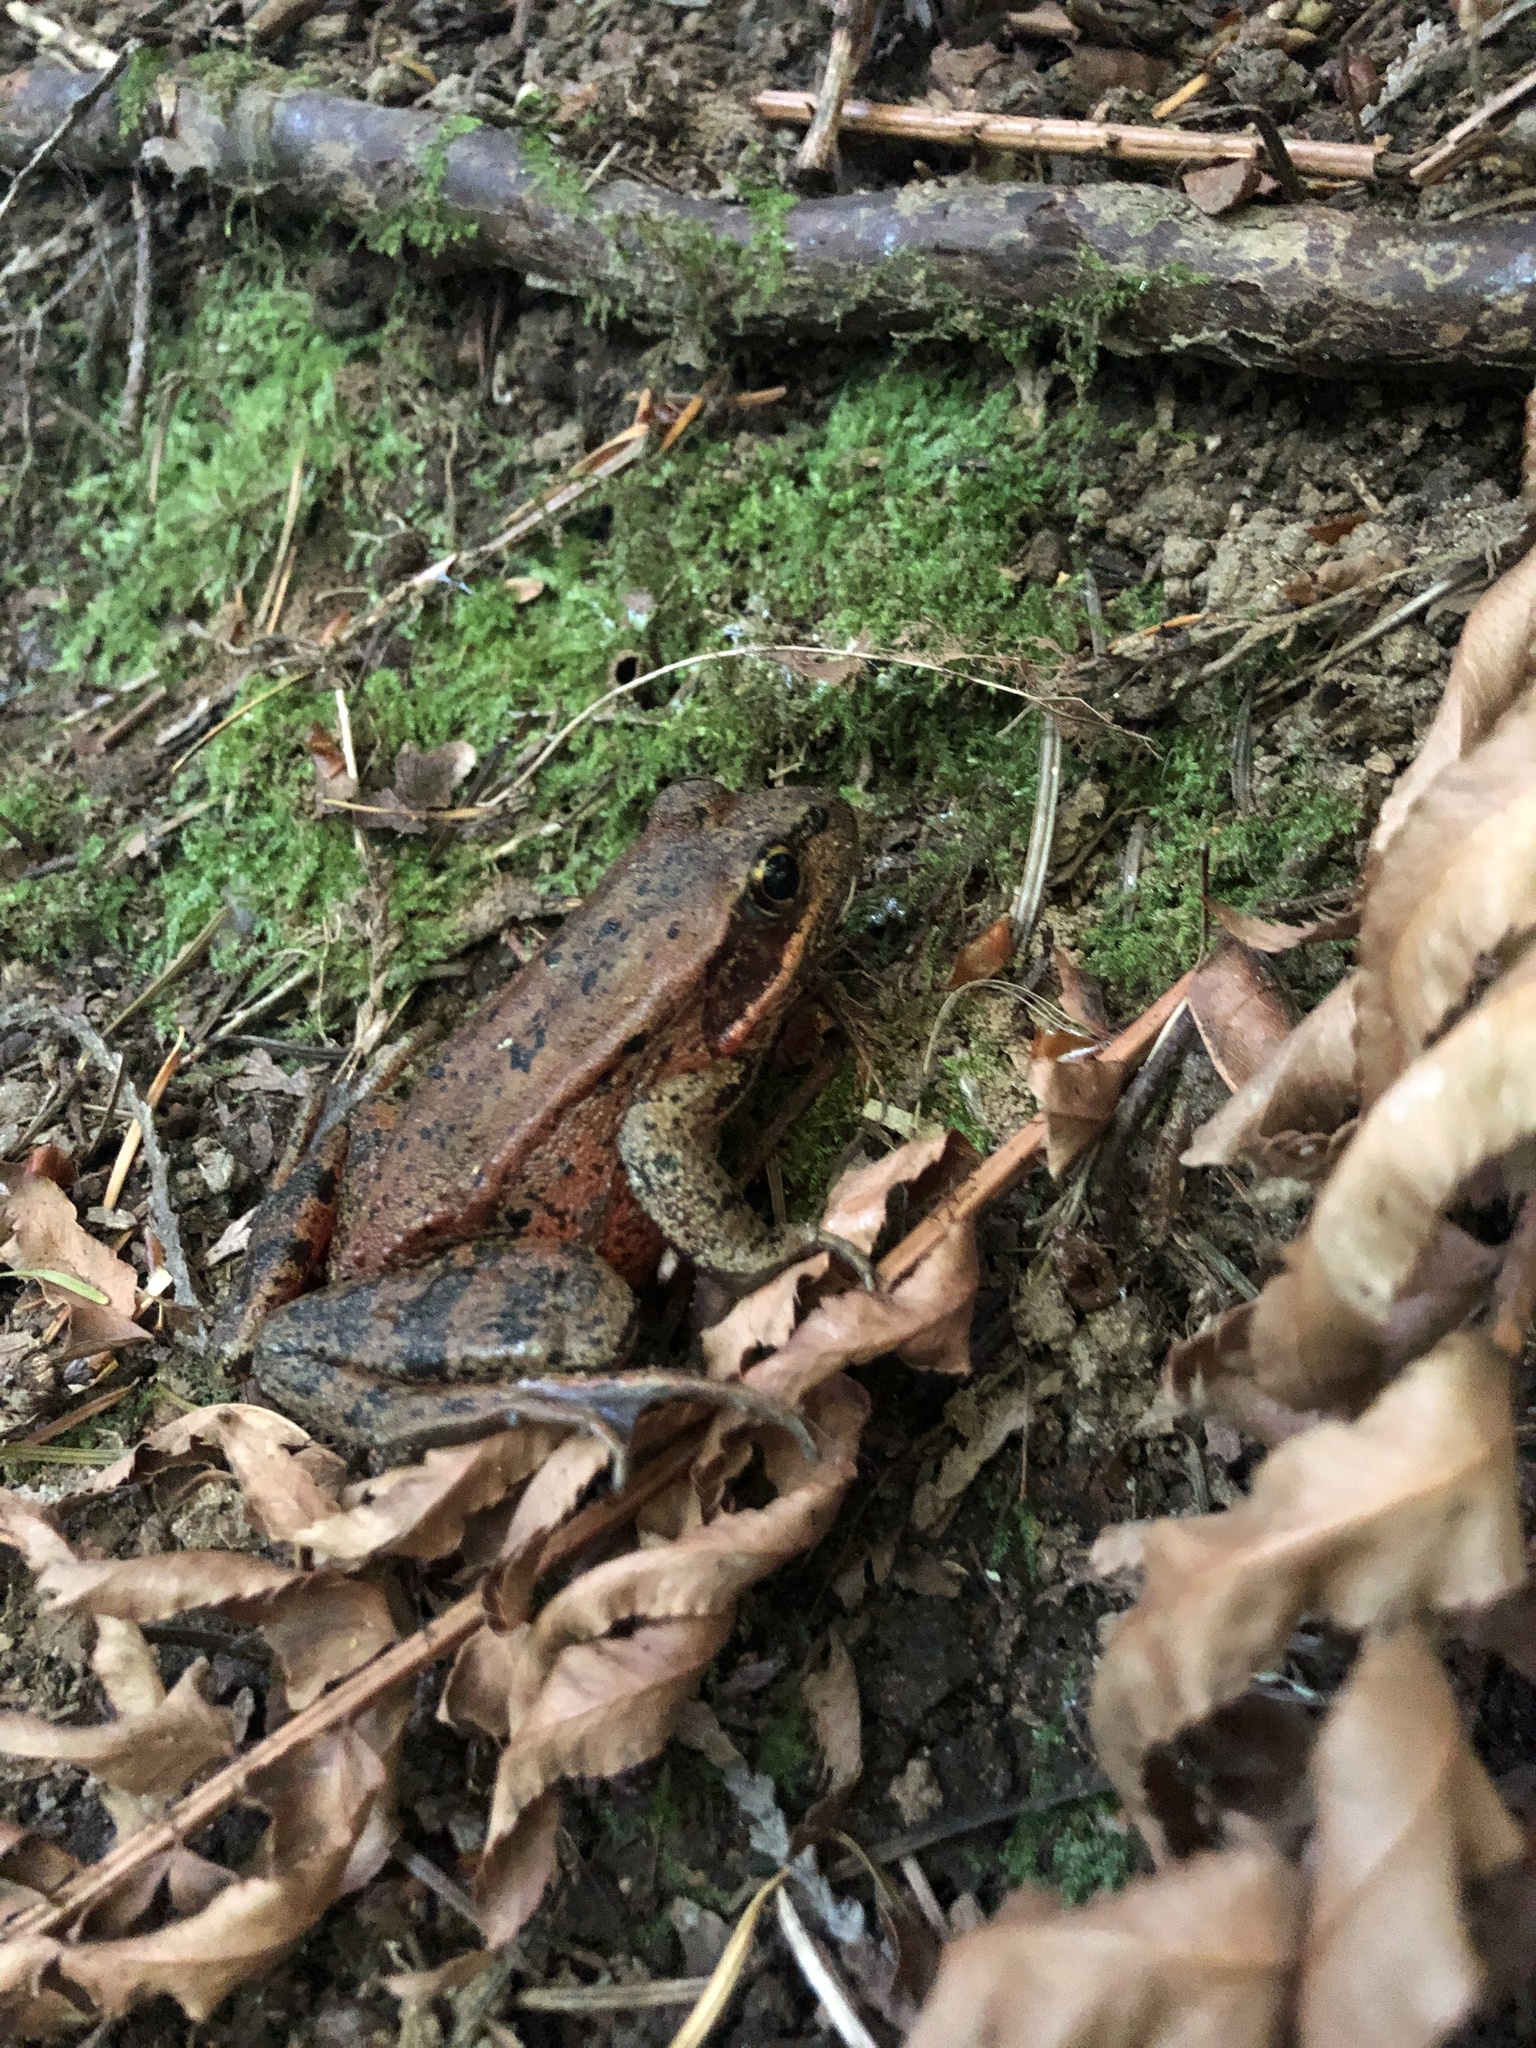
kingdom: Animalia
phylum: Chordata
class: Amphibia
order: Anura
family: Ranidae
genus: Rana
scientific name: Rana aurora
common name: Red-legged frog
